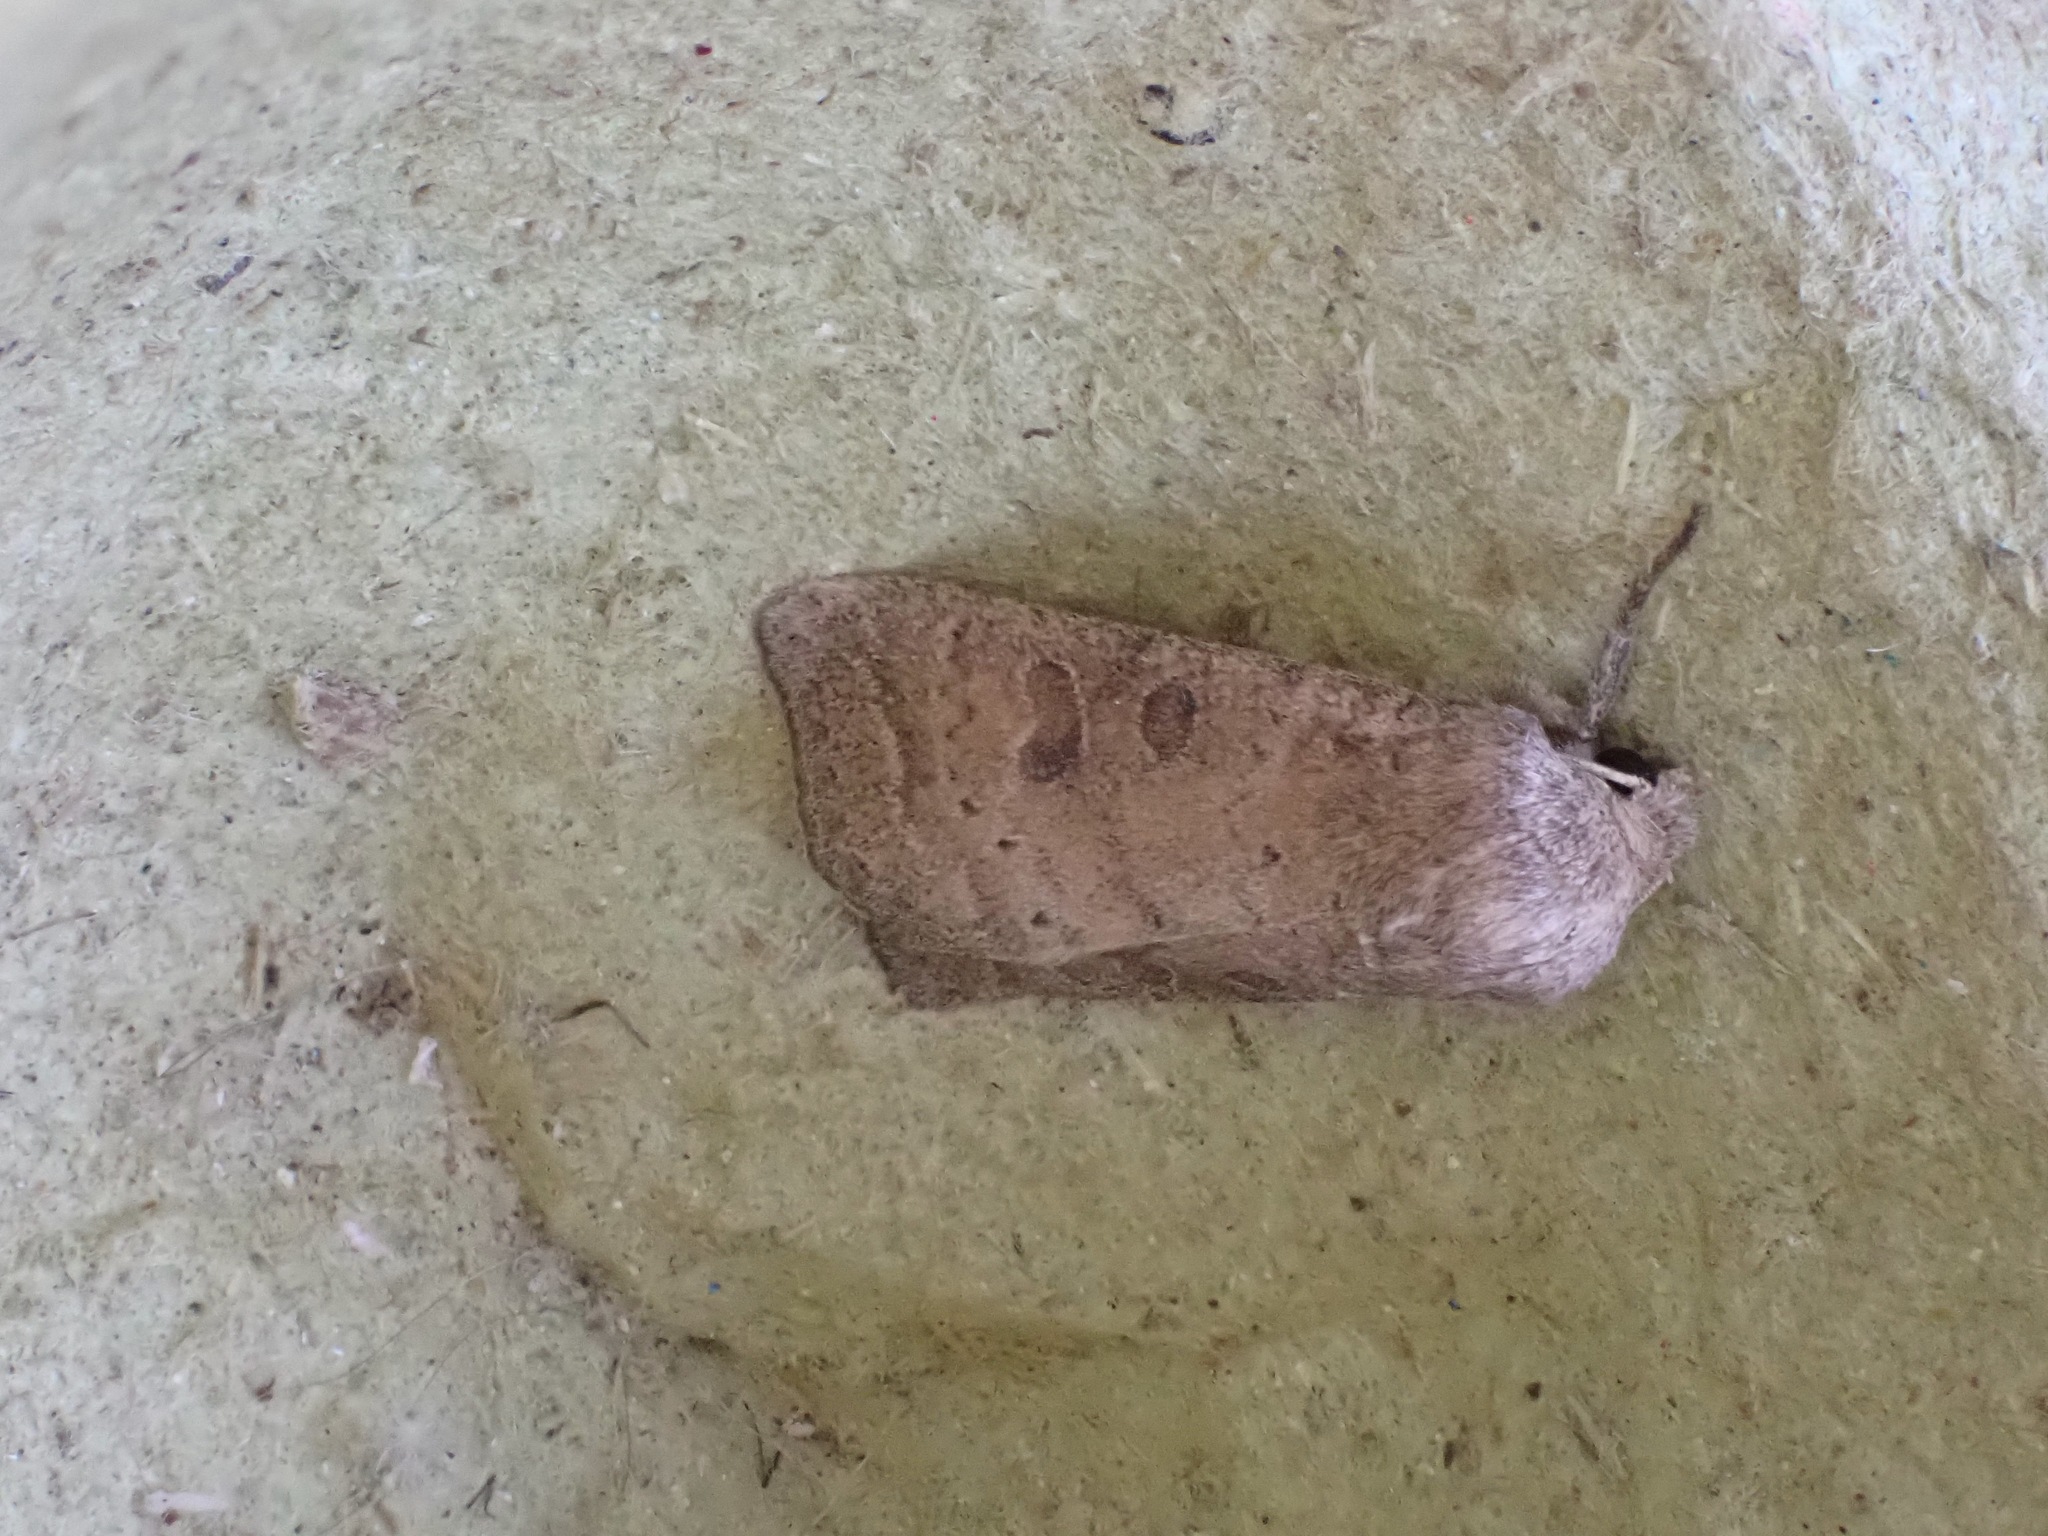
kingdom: Animalia
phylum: Arthropoda
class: Insecta
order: Lepidoptera
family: Noctuidae
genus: Hoplodrina
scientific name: Hoplodrina ambigua
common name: Vine's rustic
